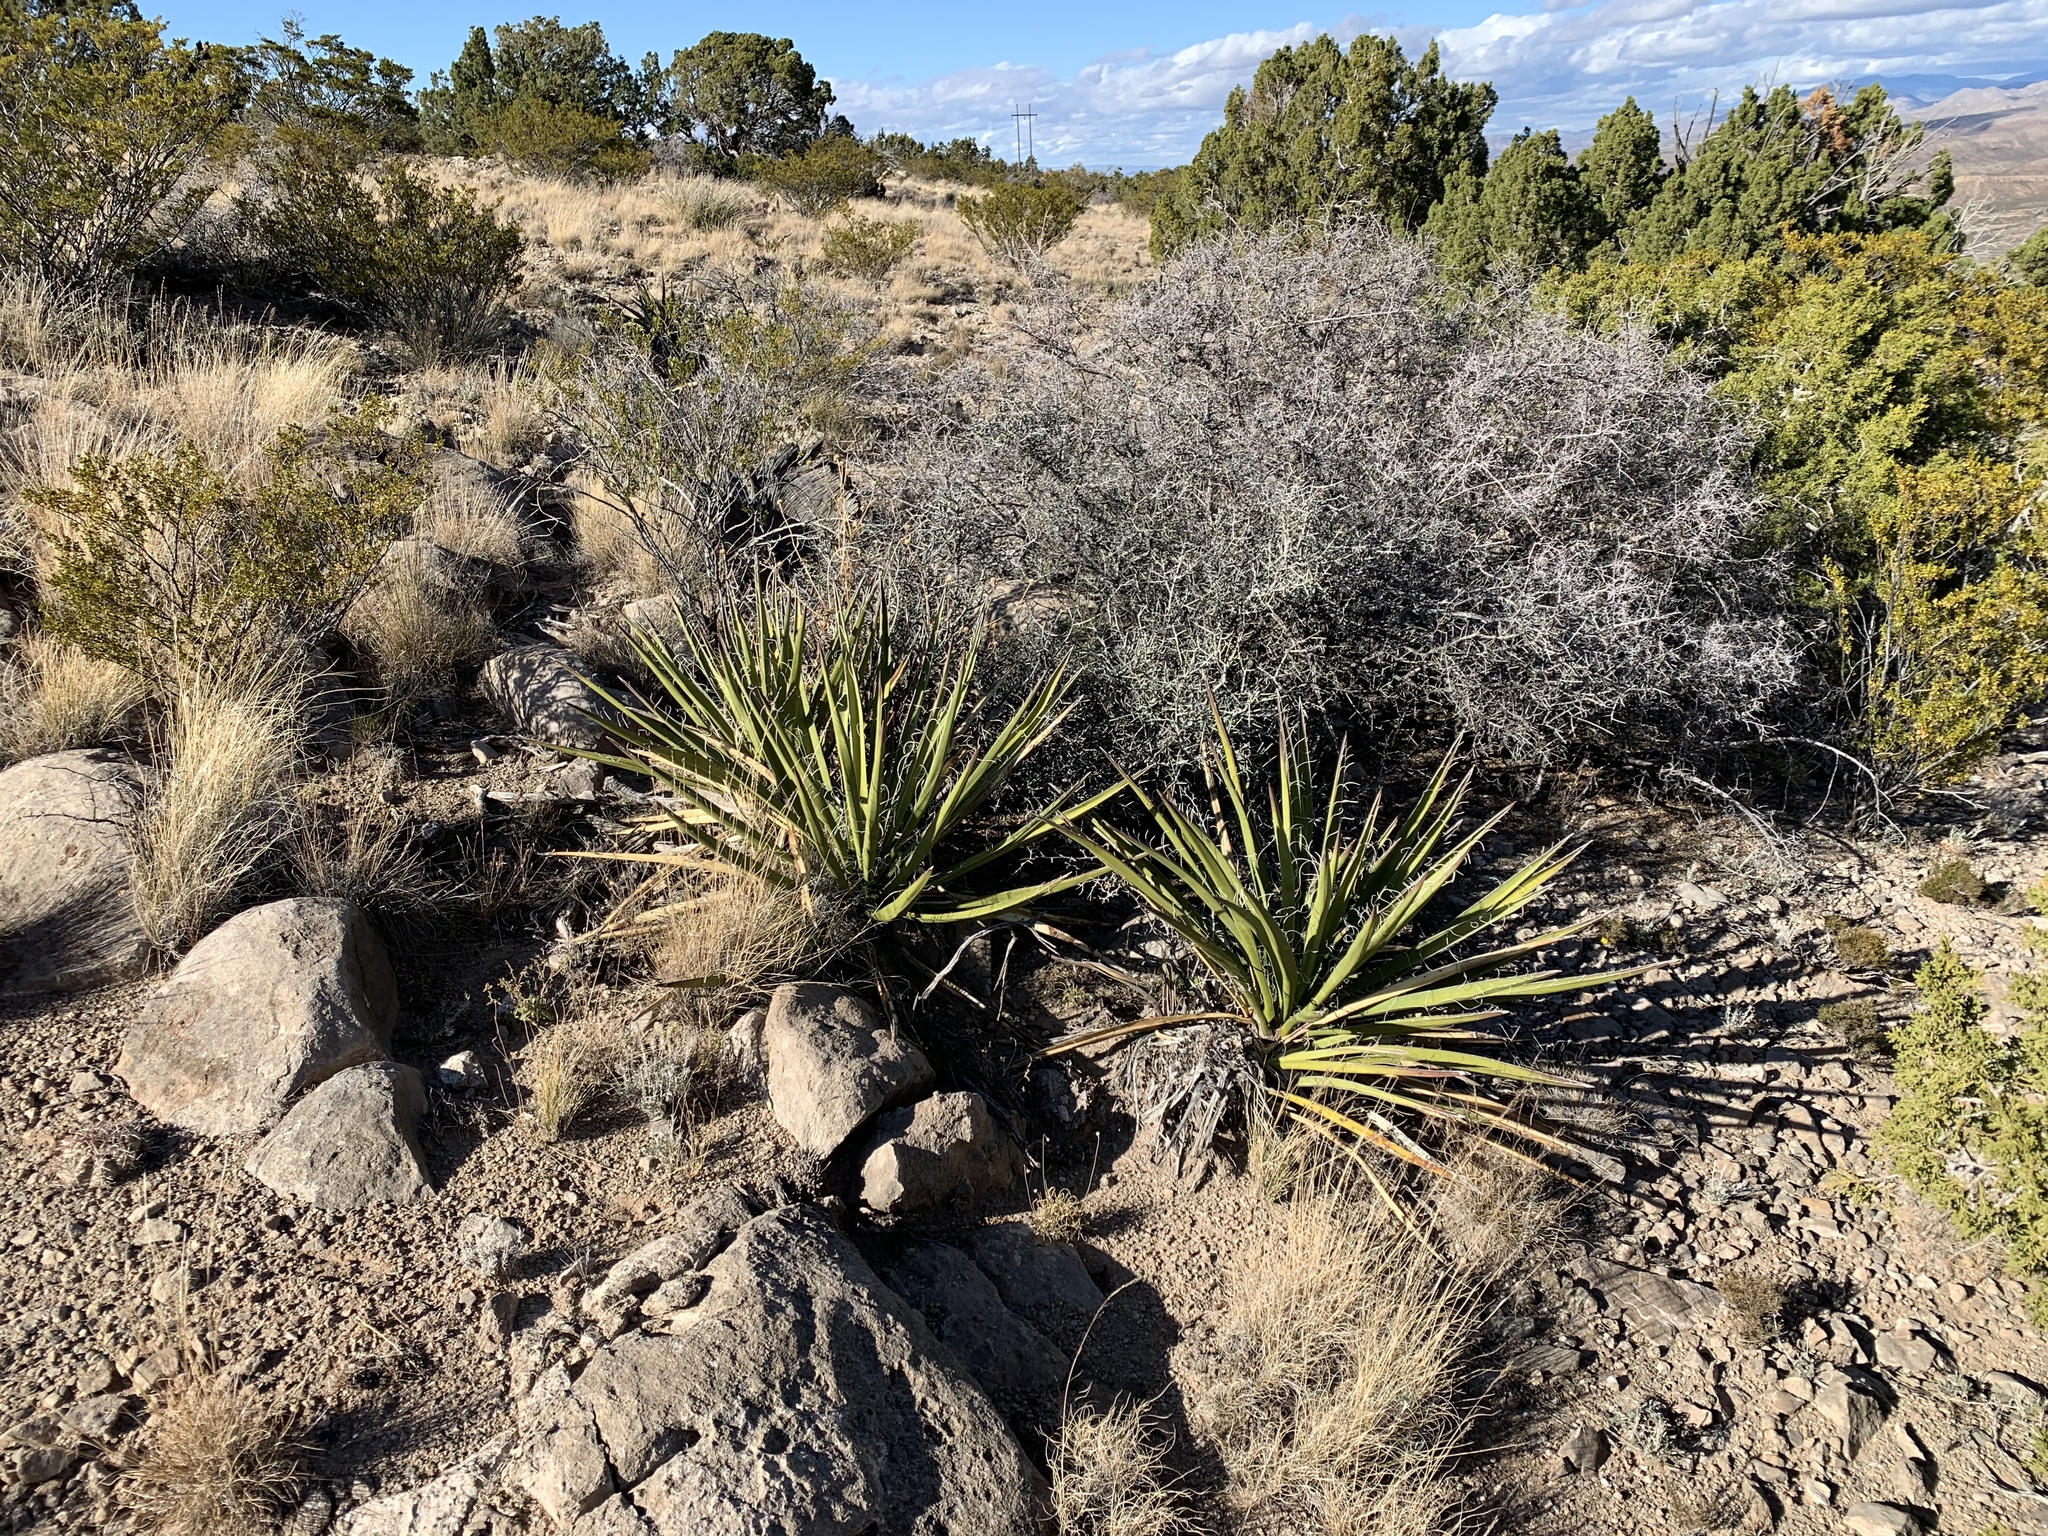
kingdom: Plantae
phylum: Tracheophyta
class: Liliopsida
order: Asparagales
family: Asparagaceae
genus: Yucca
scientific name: Yucca baccata
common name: Banana yucca
